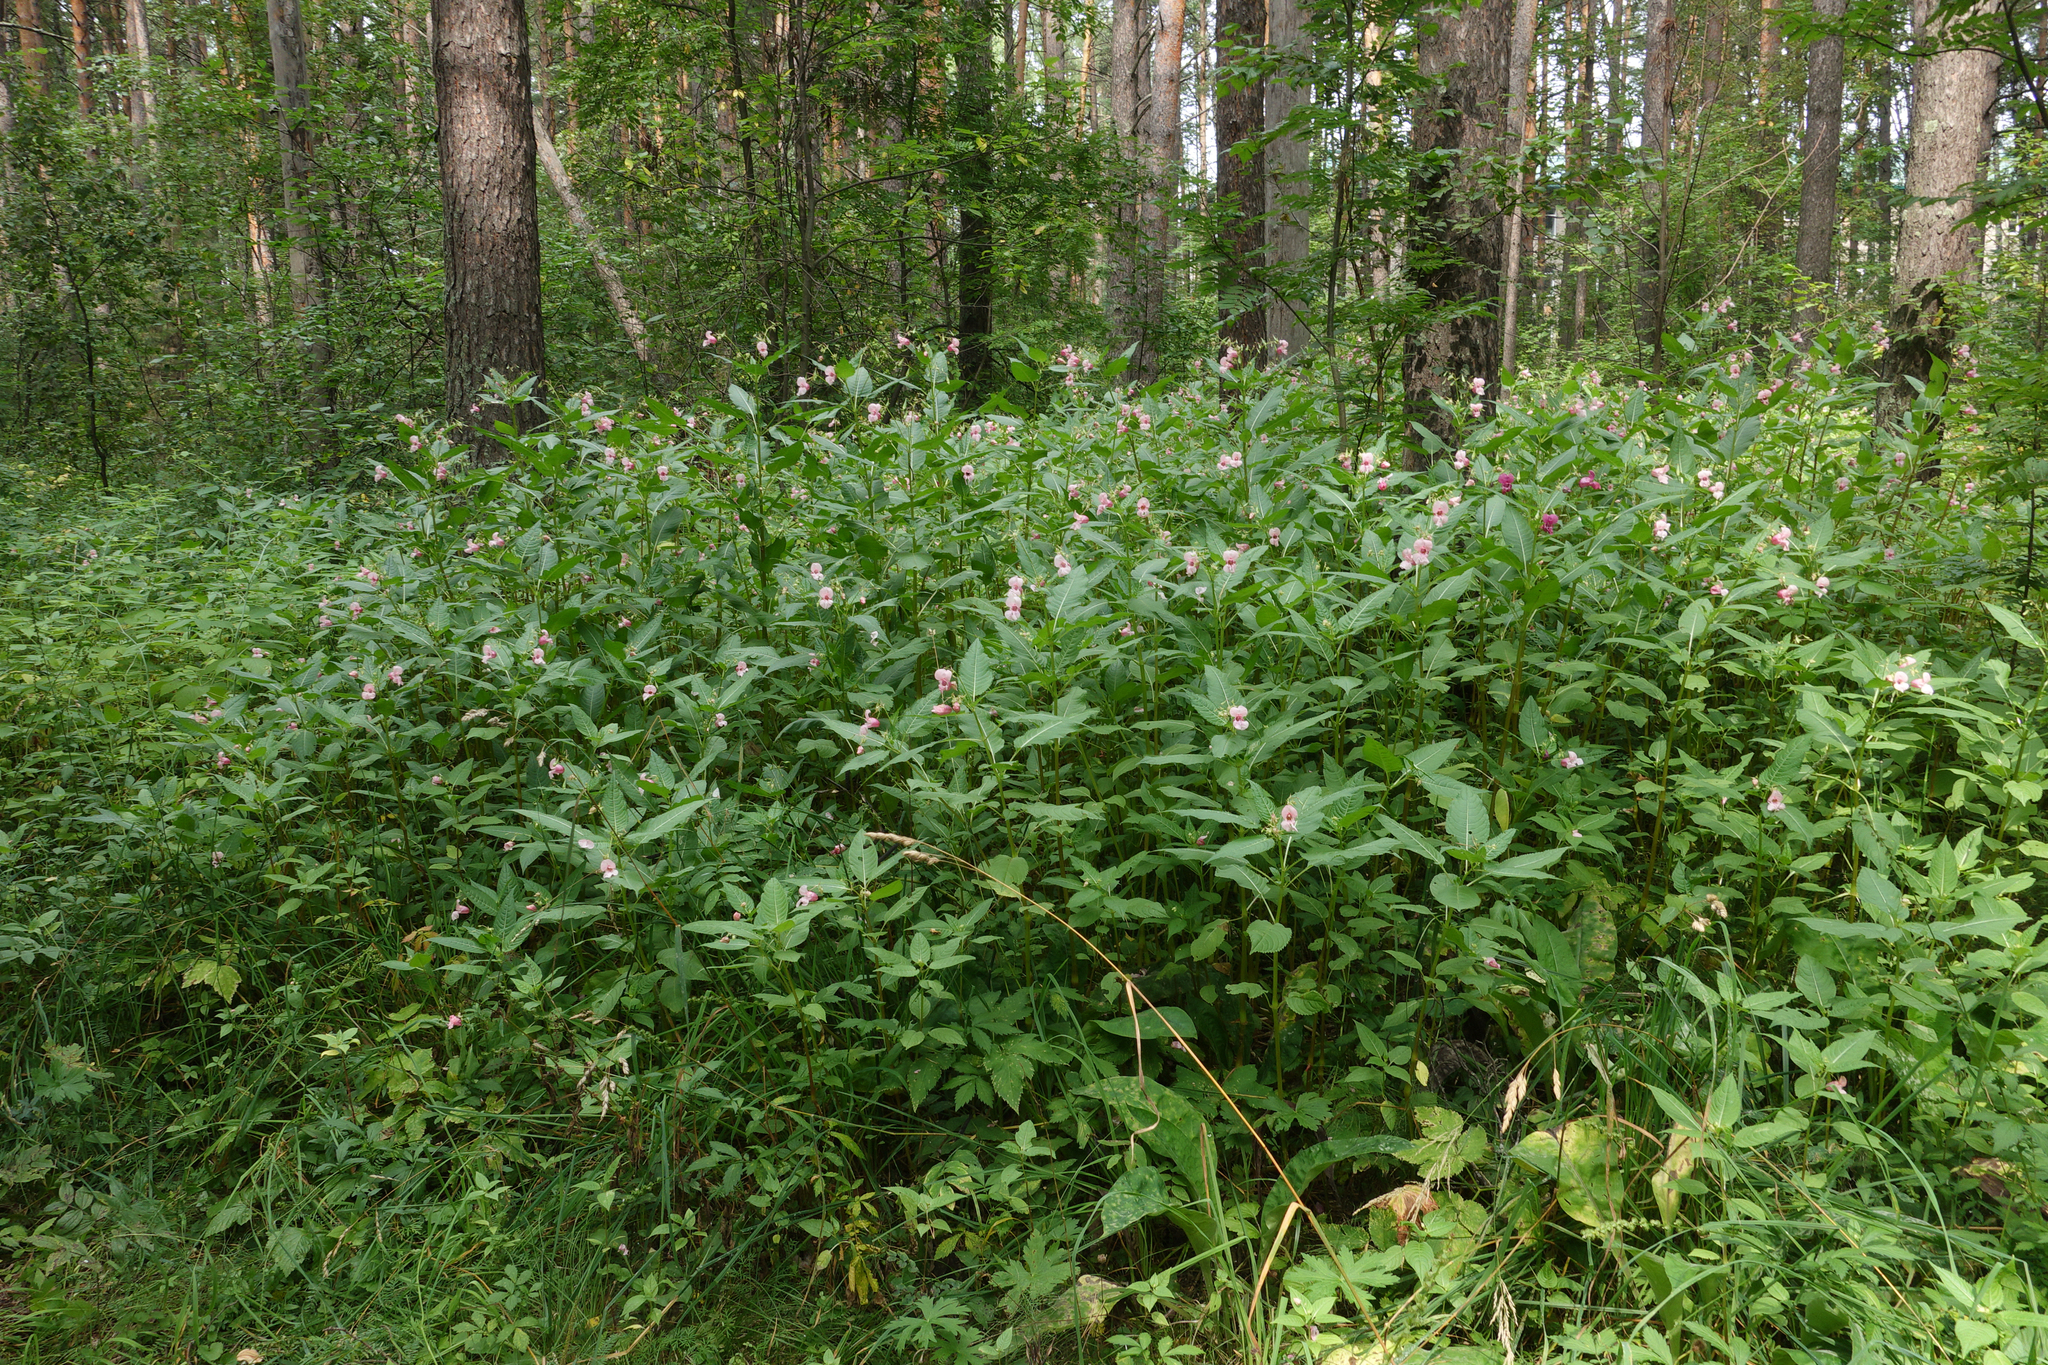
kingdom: Plantae
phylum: Tracheophyta
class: Magnoliopsida
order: Ericales
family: Balsaminaceae
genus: Impatiens
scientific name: Impatiens glandulifera
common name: Himalayan balsam
